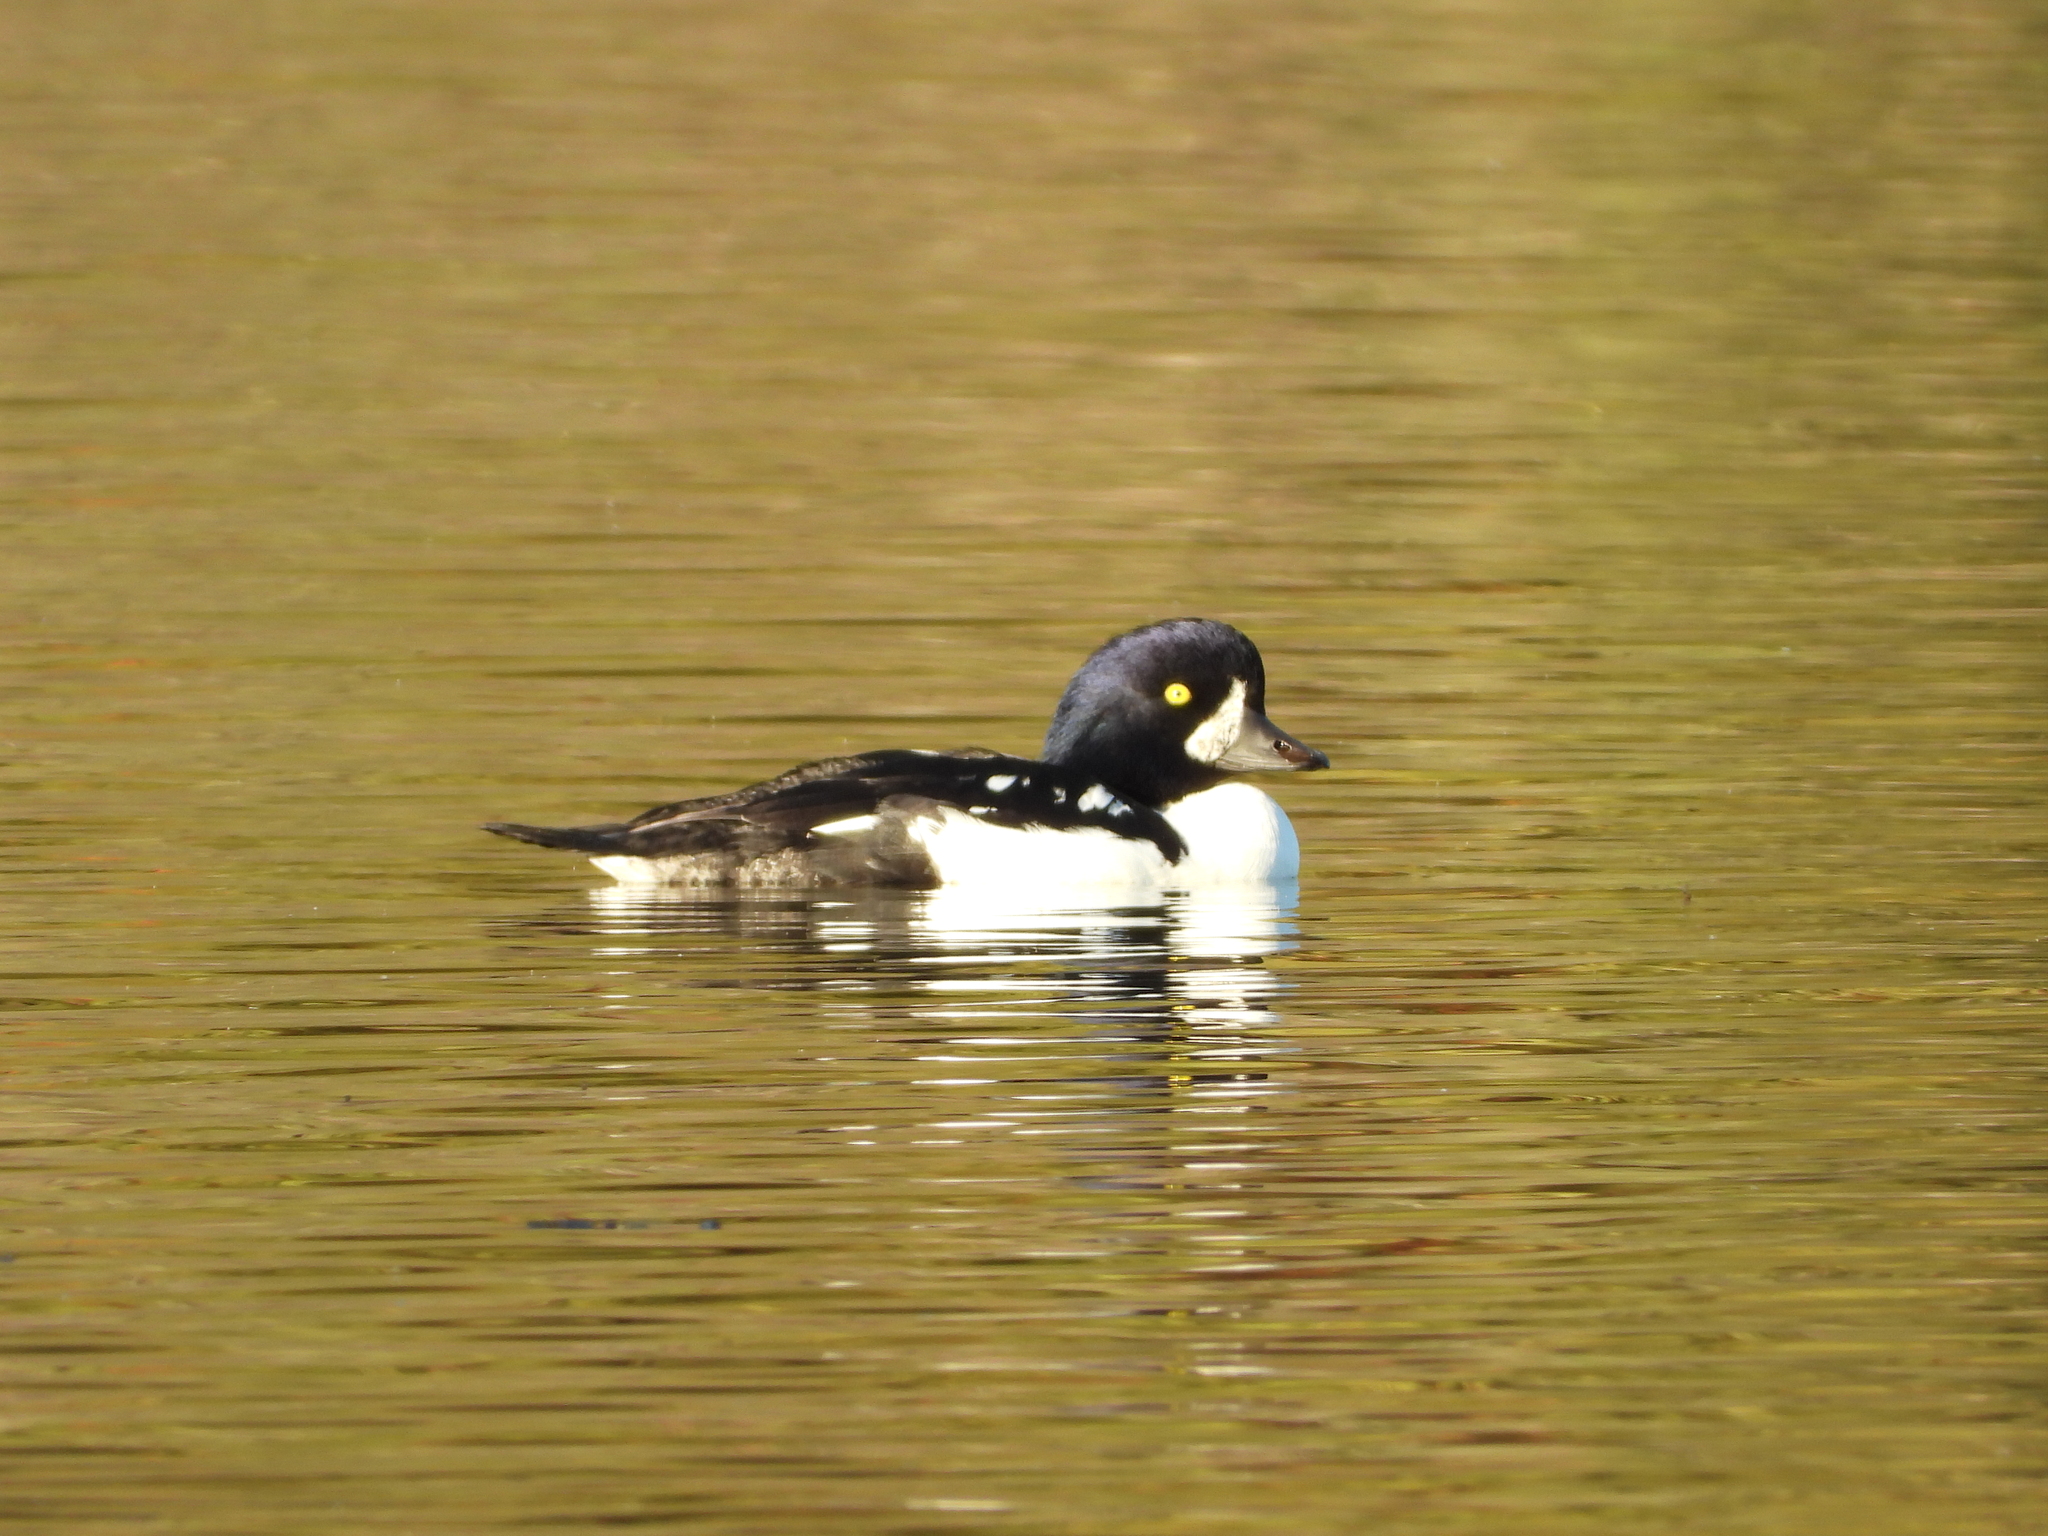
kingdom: Animalia
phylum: Chordata
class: Aves
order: Anseriformes
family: Anatidae
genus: Bucephala
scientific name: Bucephala islandica
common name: Barrow's goldeneye
